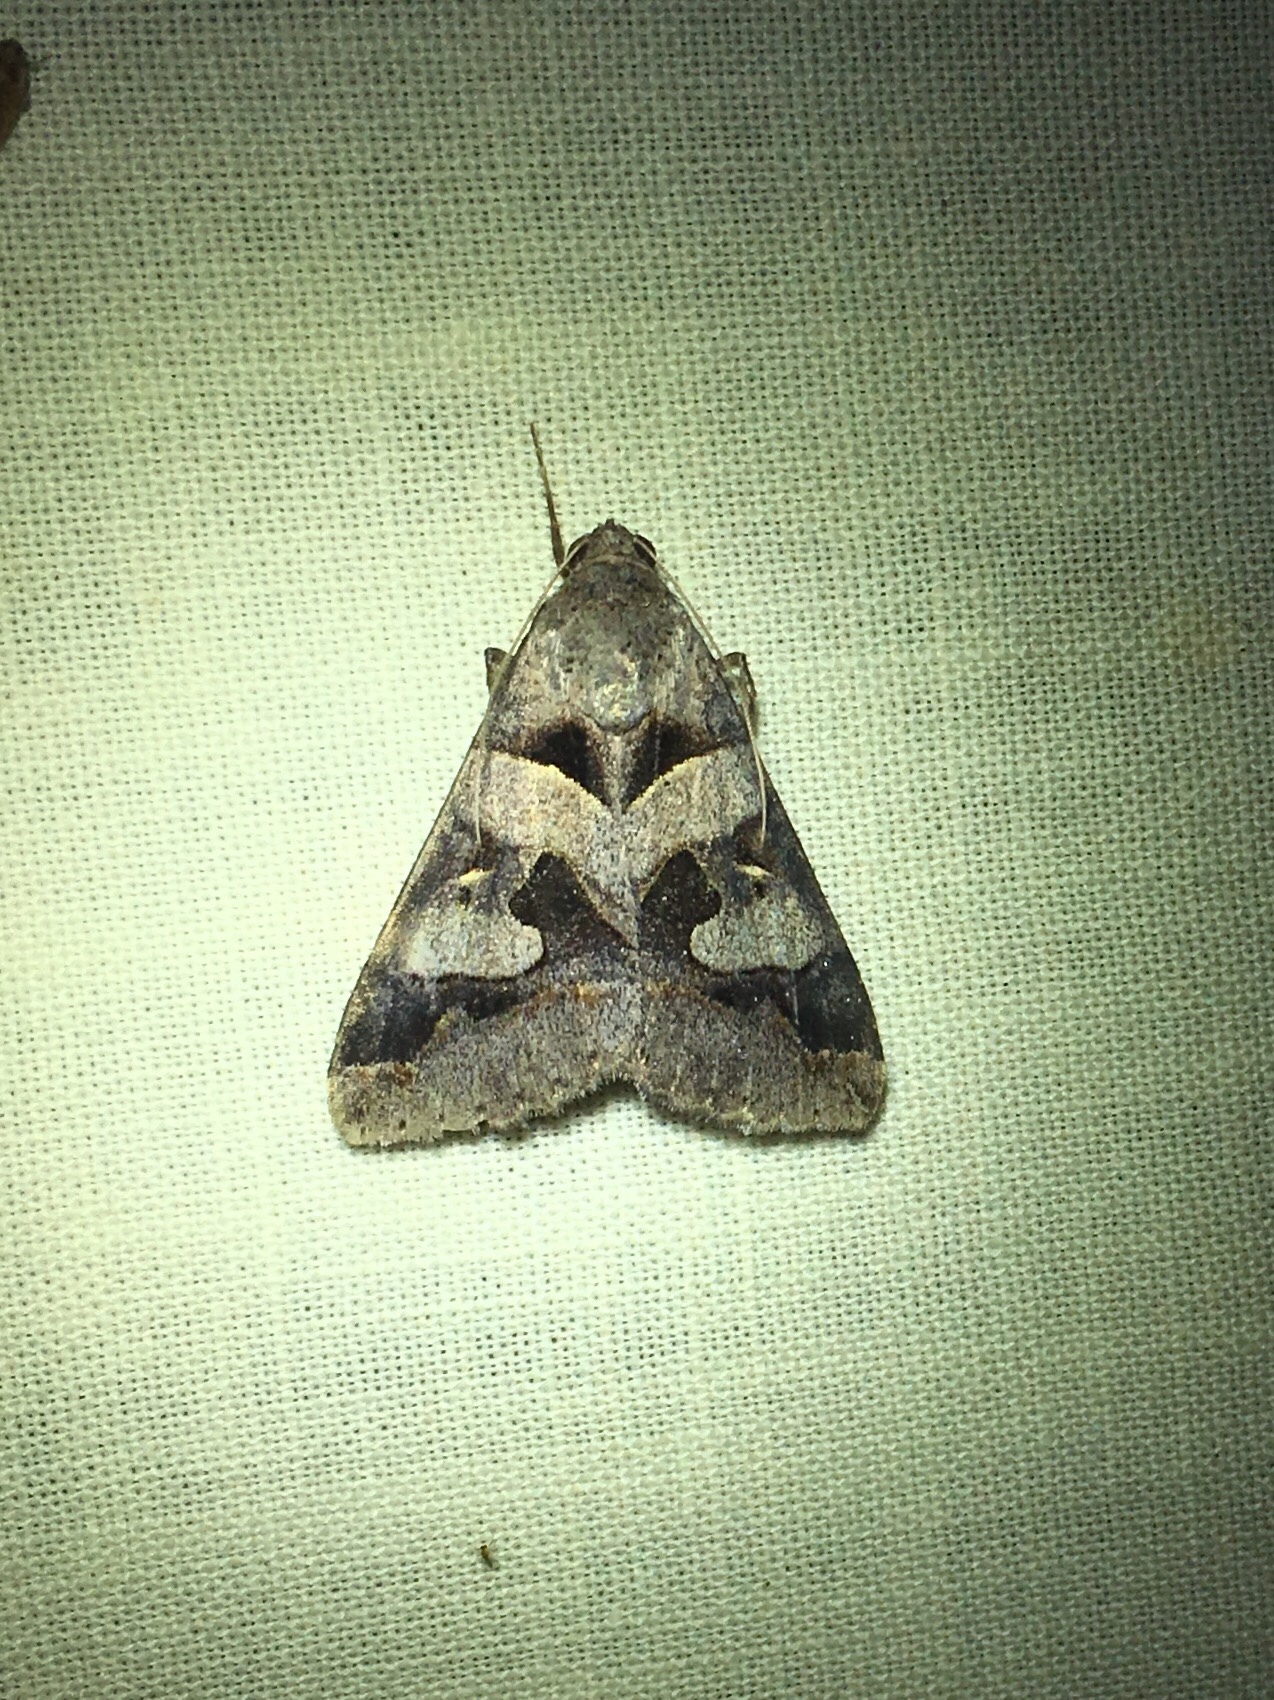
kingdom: Animalia
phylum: Arthropoda
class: Insecta
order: Lepidoptera
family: Erebidae
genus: Melipotis
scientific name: Melipotis florida
